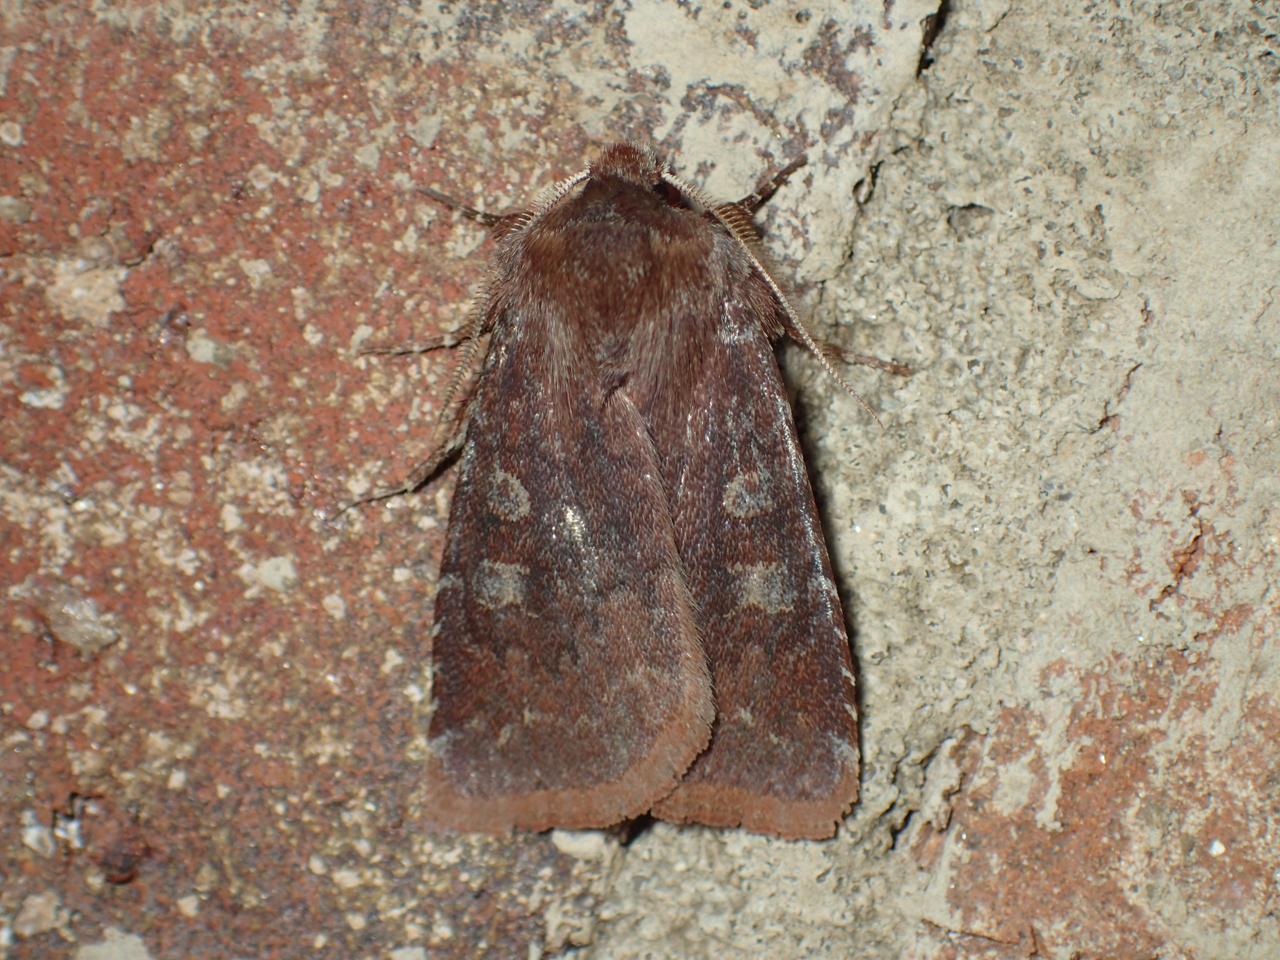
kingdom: Animalia
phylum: Arthropoda
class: Insecta
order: Lepidoptera
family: Noctuidae
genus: Cerastis
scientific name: Cerastis tenebrifera
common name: Reddish speckled dart
